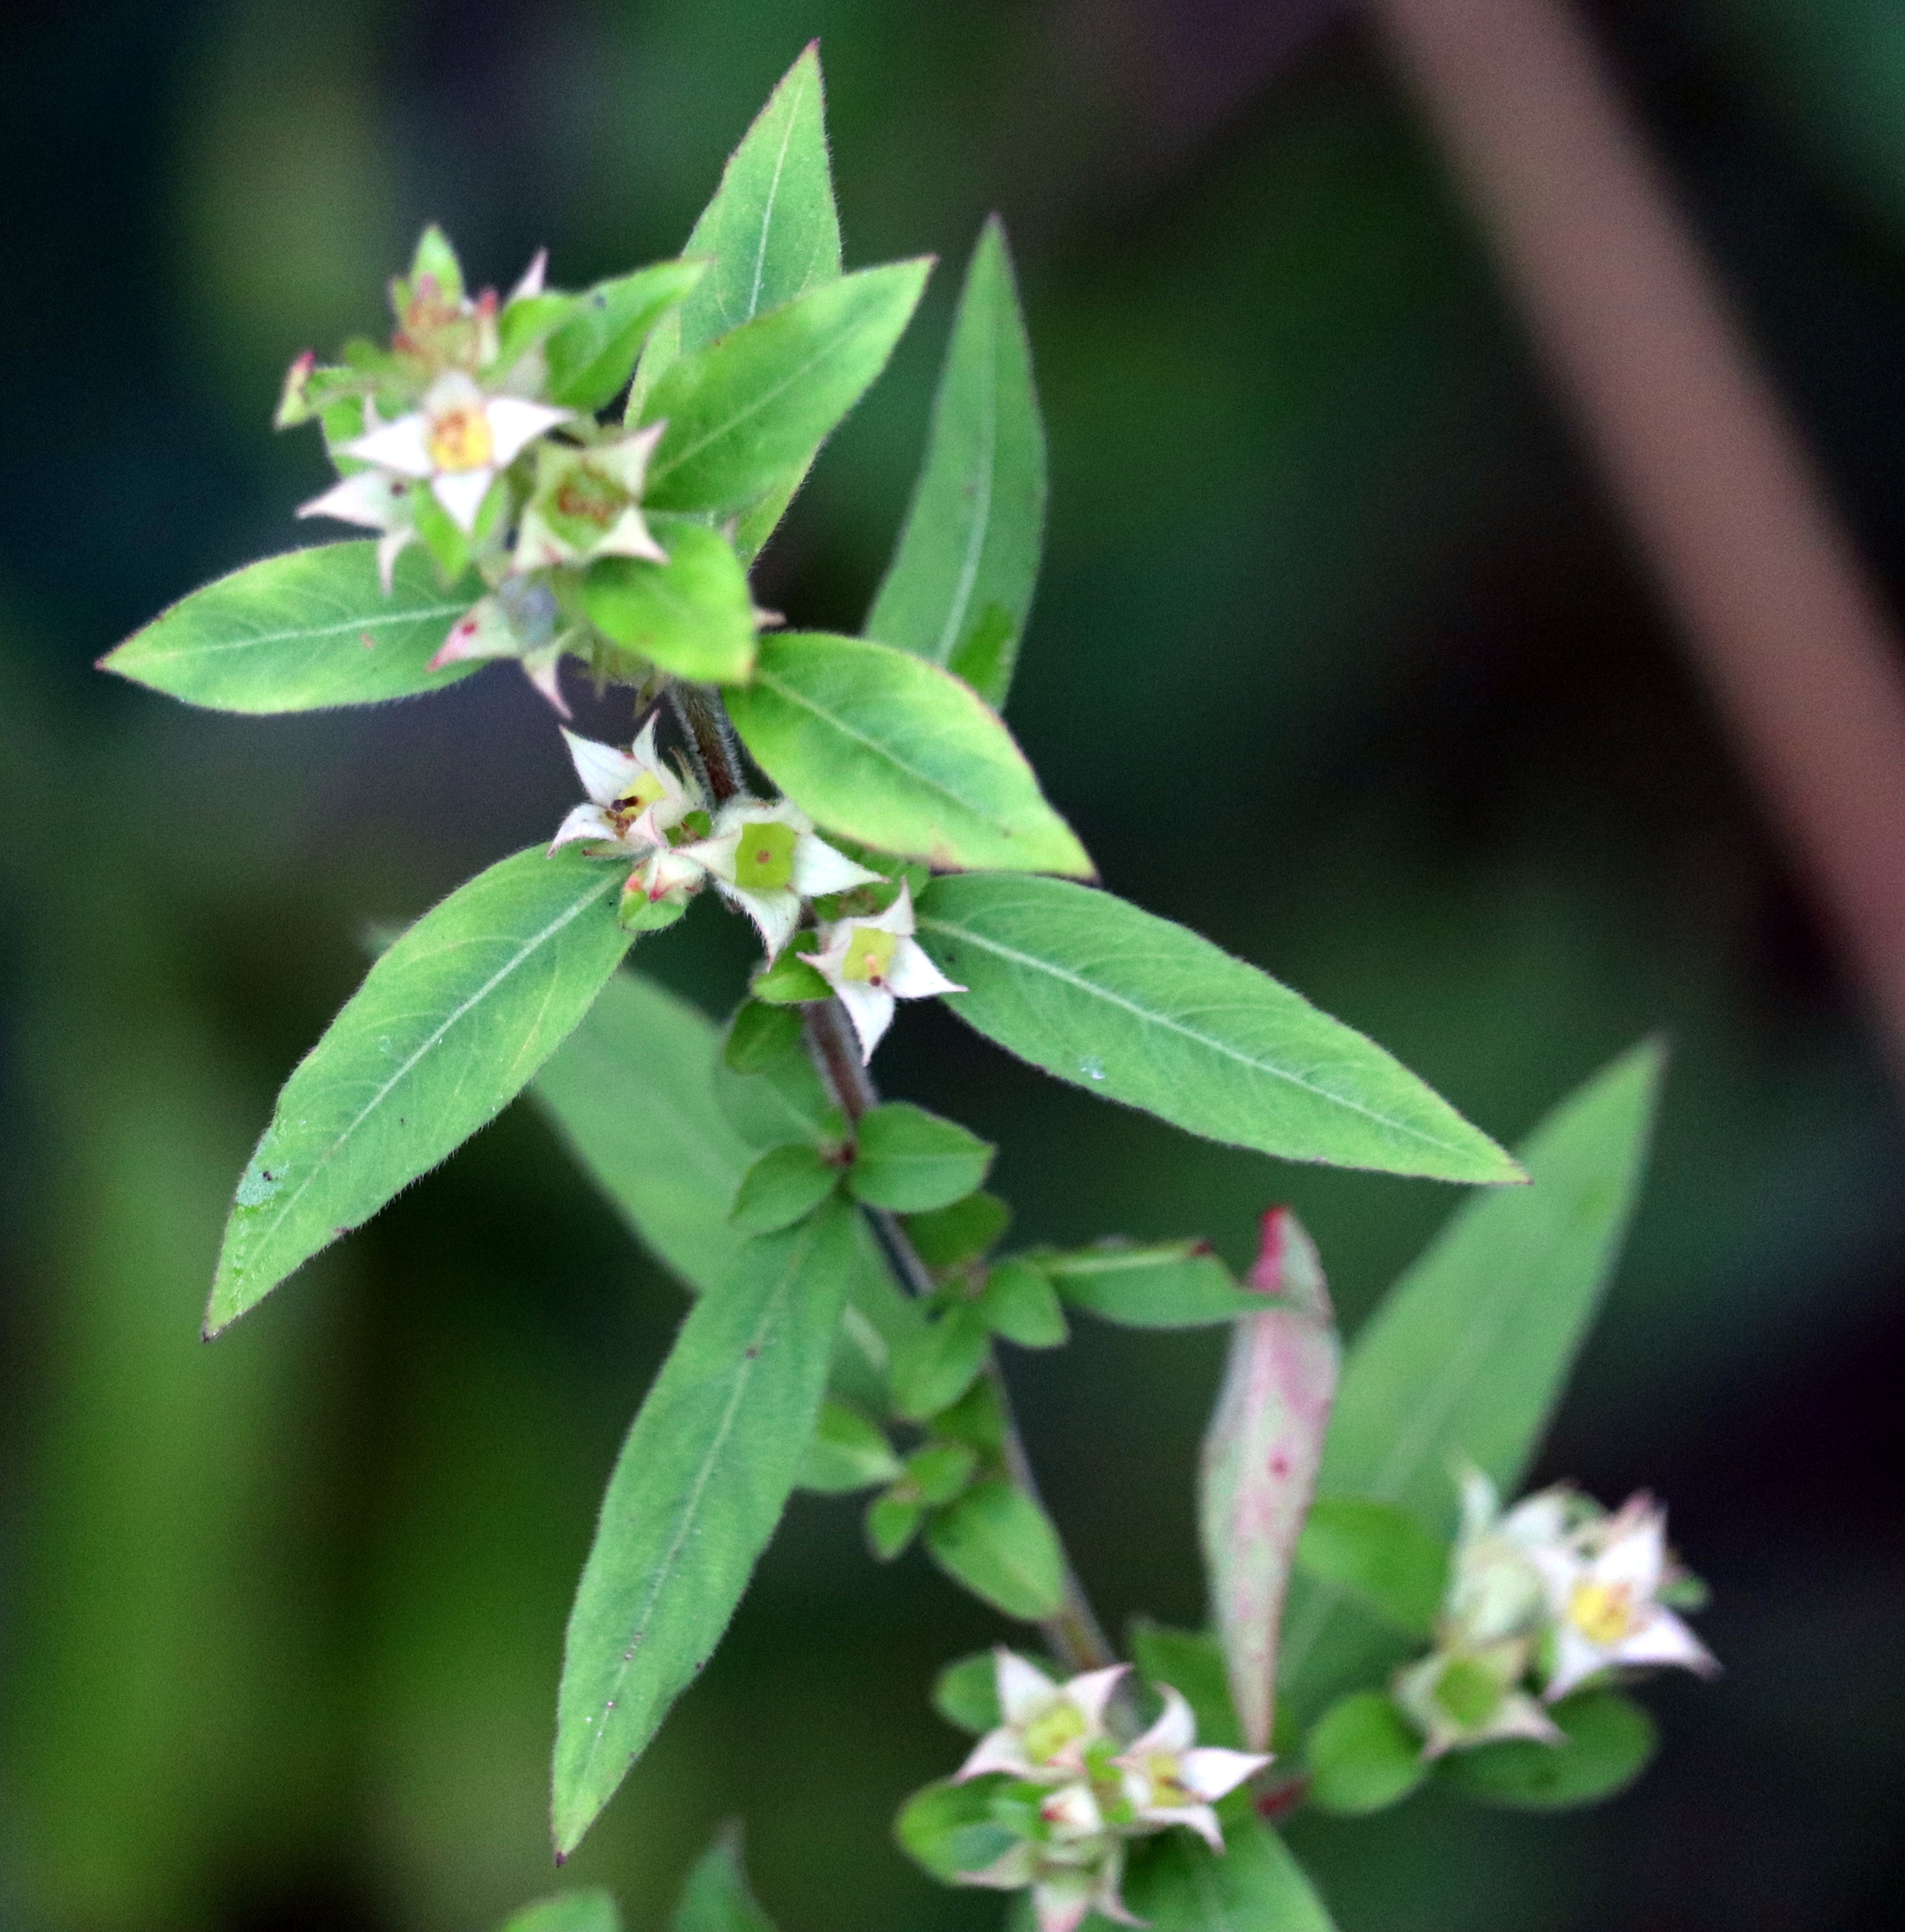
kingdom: Plantae
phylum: Tracheophyta
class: Magnoliopsida
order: Myrtales
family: Onagraceae
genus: Ludwigia
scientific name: Ludwigia pilosa
